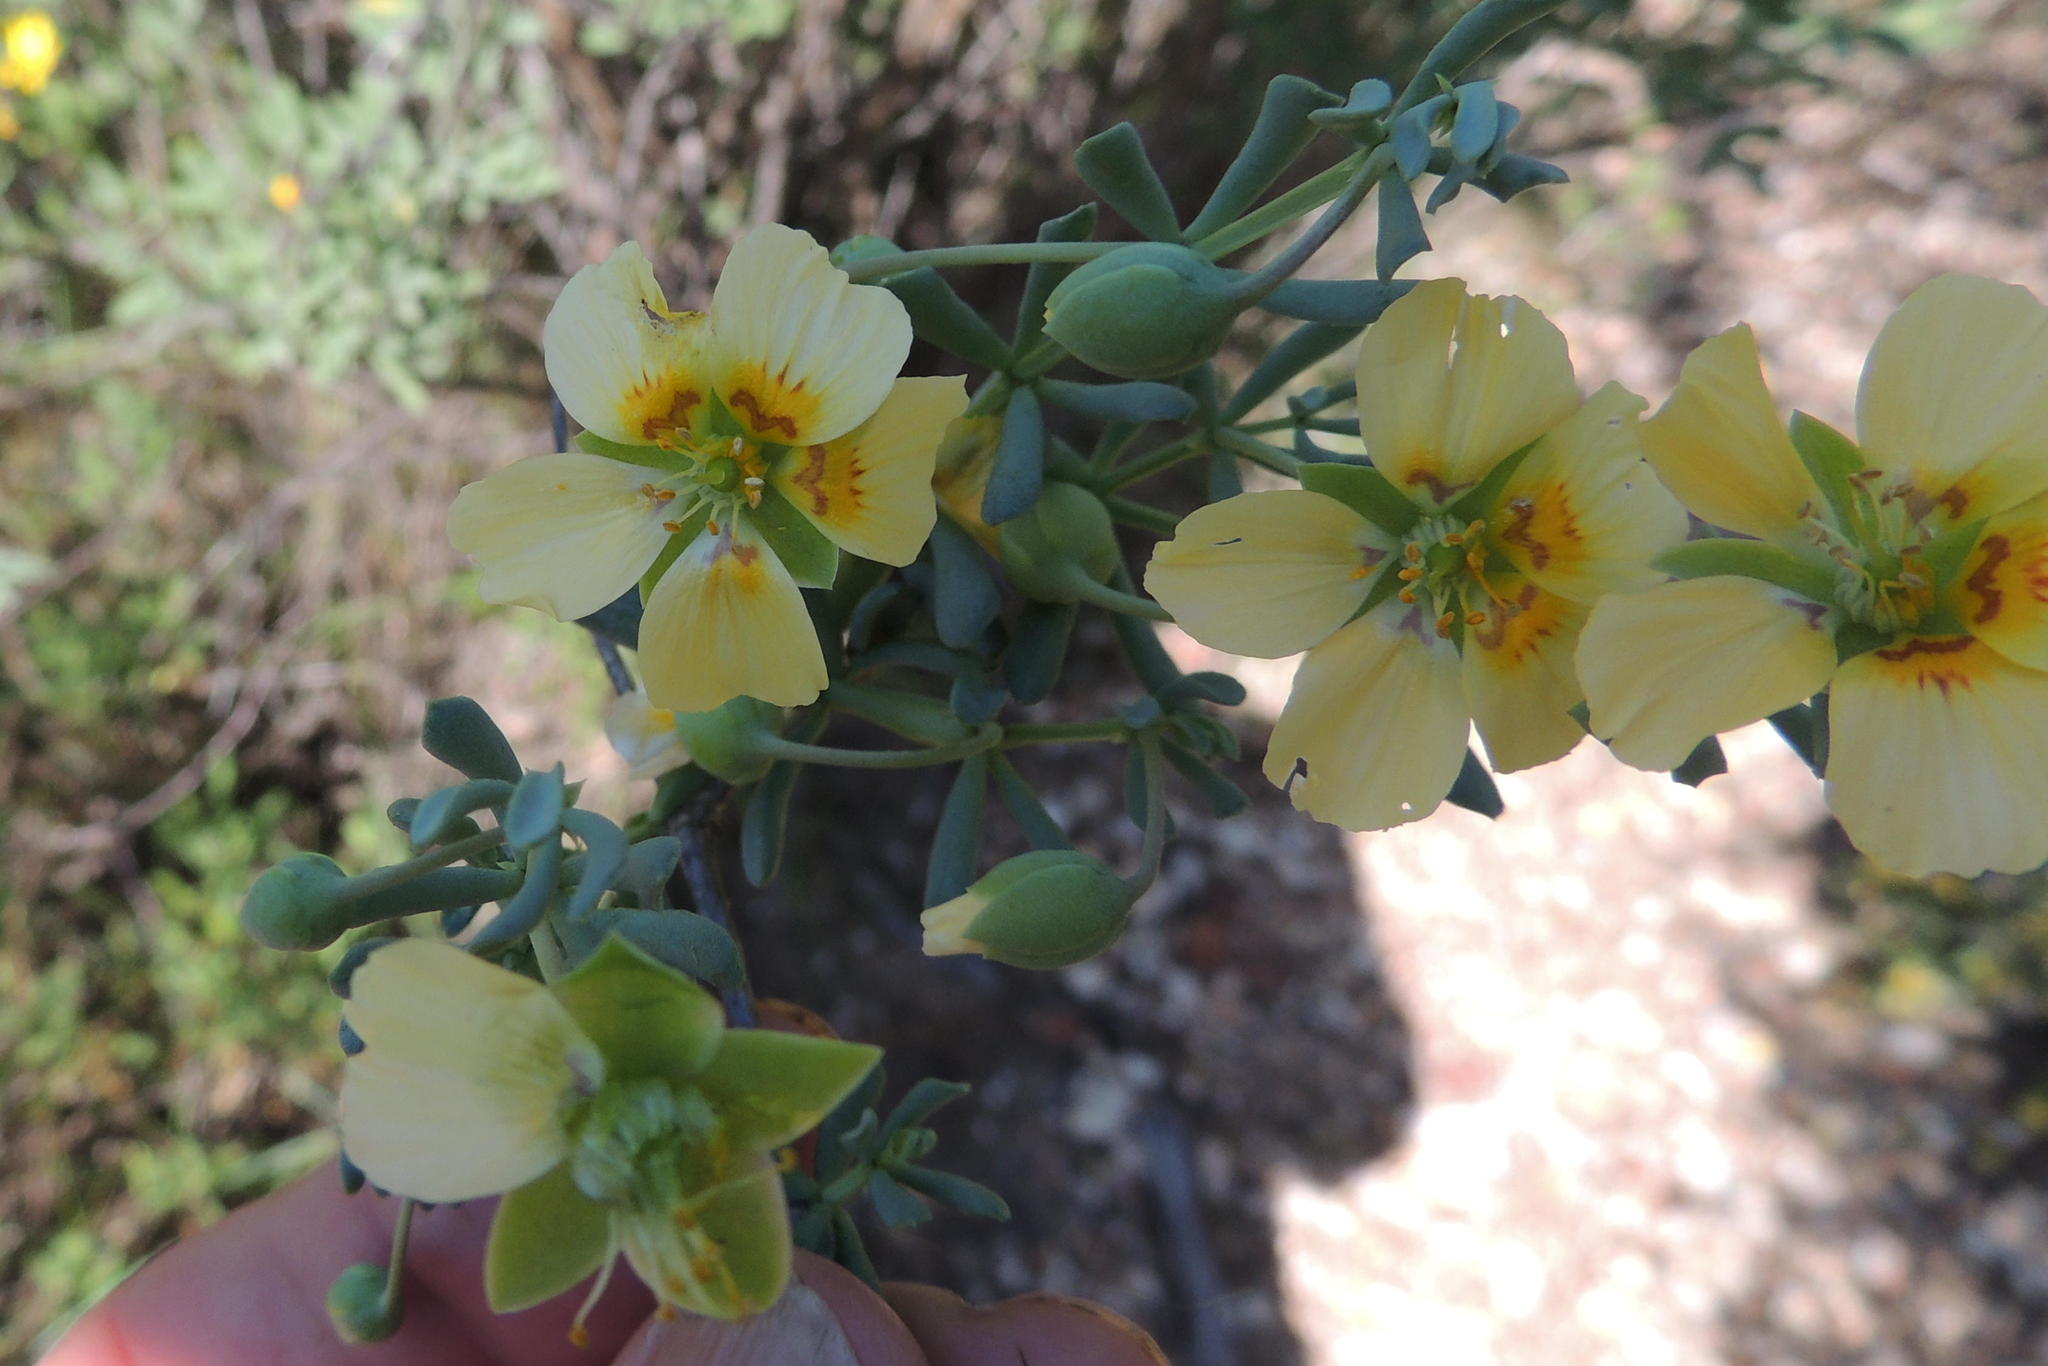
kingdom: Plantae
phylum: Tracheophyta
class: Magnoliopsida
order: Zygophyllales
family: Zygophyllaceae
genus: Roepera
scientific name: Roepera flexuosa
